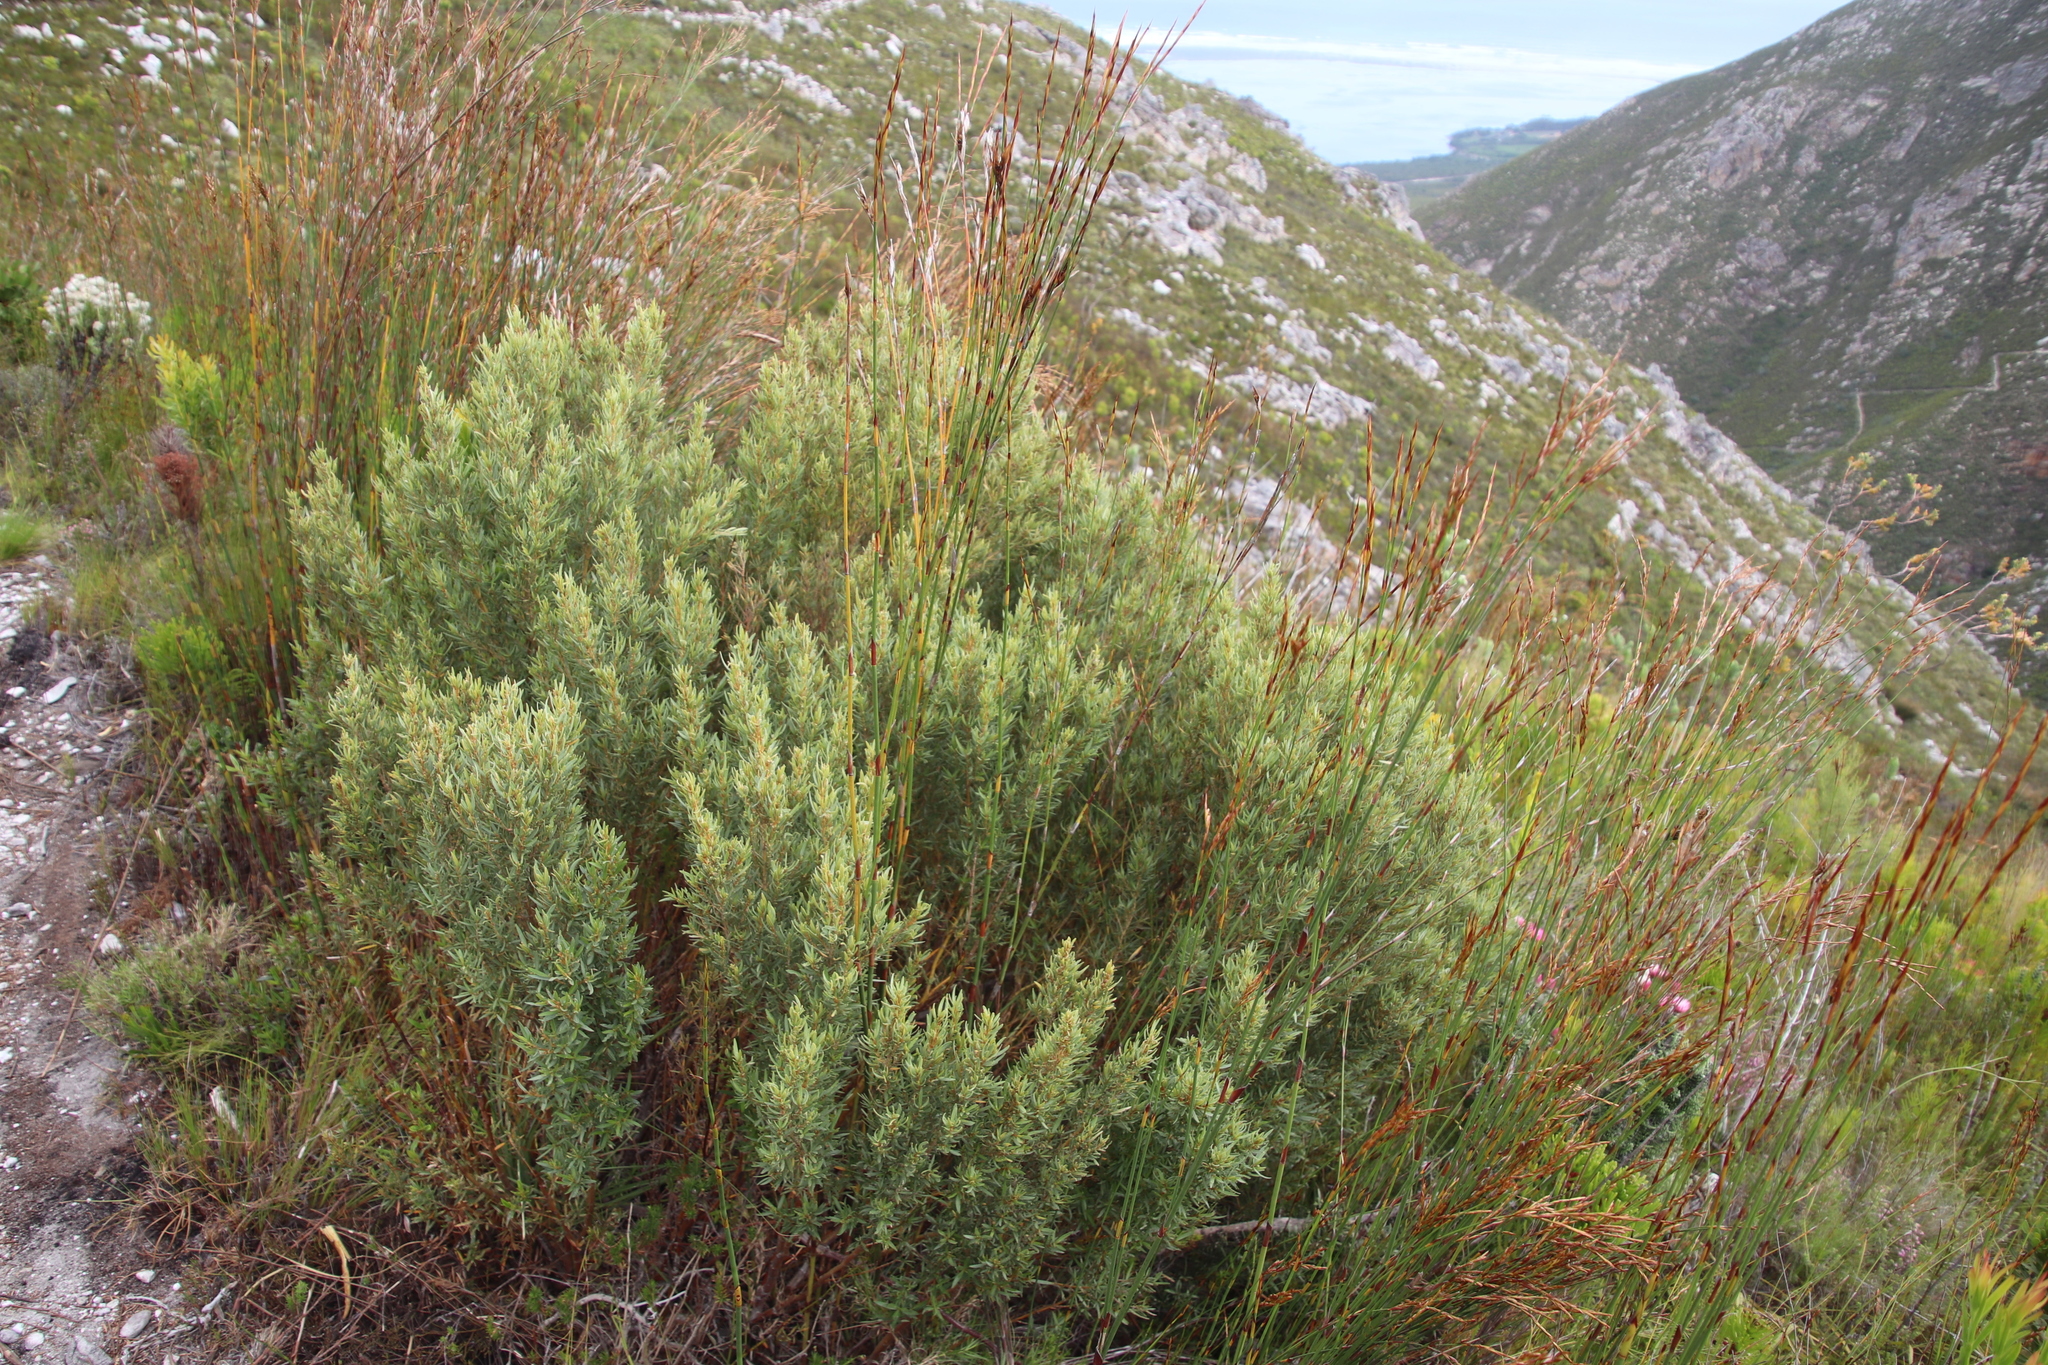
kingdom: Plantae
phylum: Tracheophyta
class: Magnoliopsida
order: Cornales
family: Grubbiaceae
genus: Grubbia
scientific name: Grubbia tomentosa
